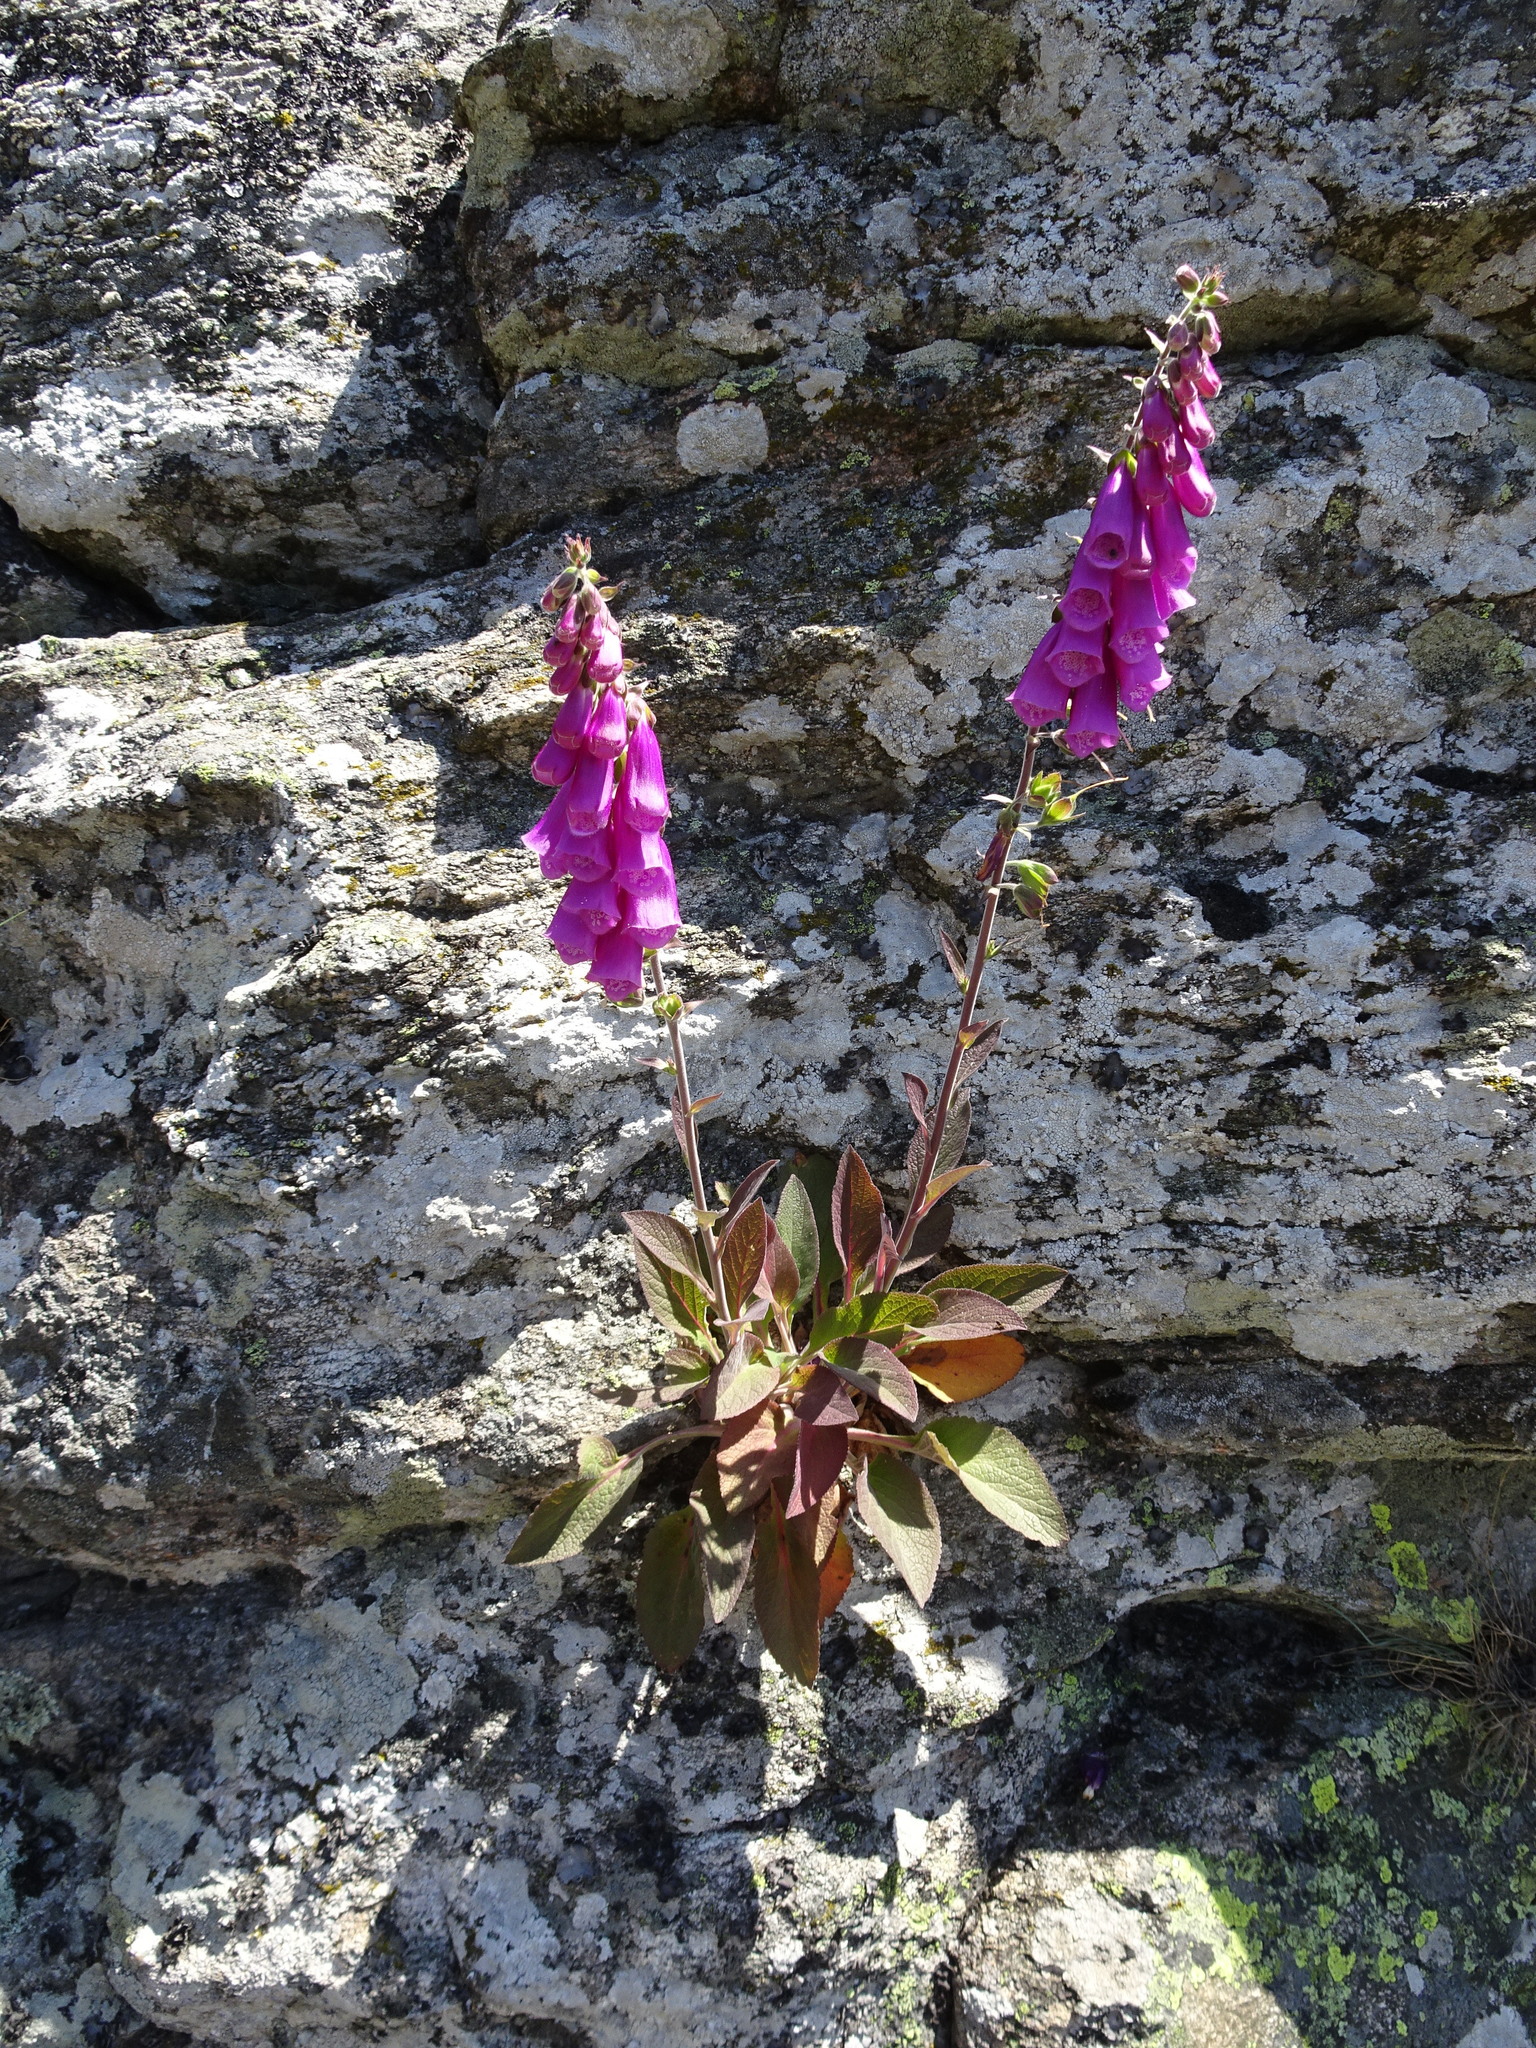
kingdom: Plantae
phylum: Tracheophyta
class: Magnoliopsida
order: Lamiales
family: Plantaginaceae
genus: Digitalis
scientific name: Digitalis purpurea
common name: Foxglove
